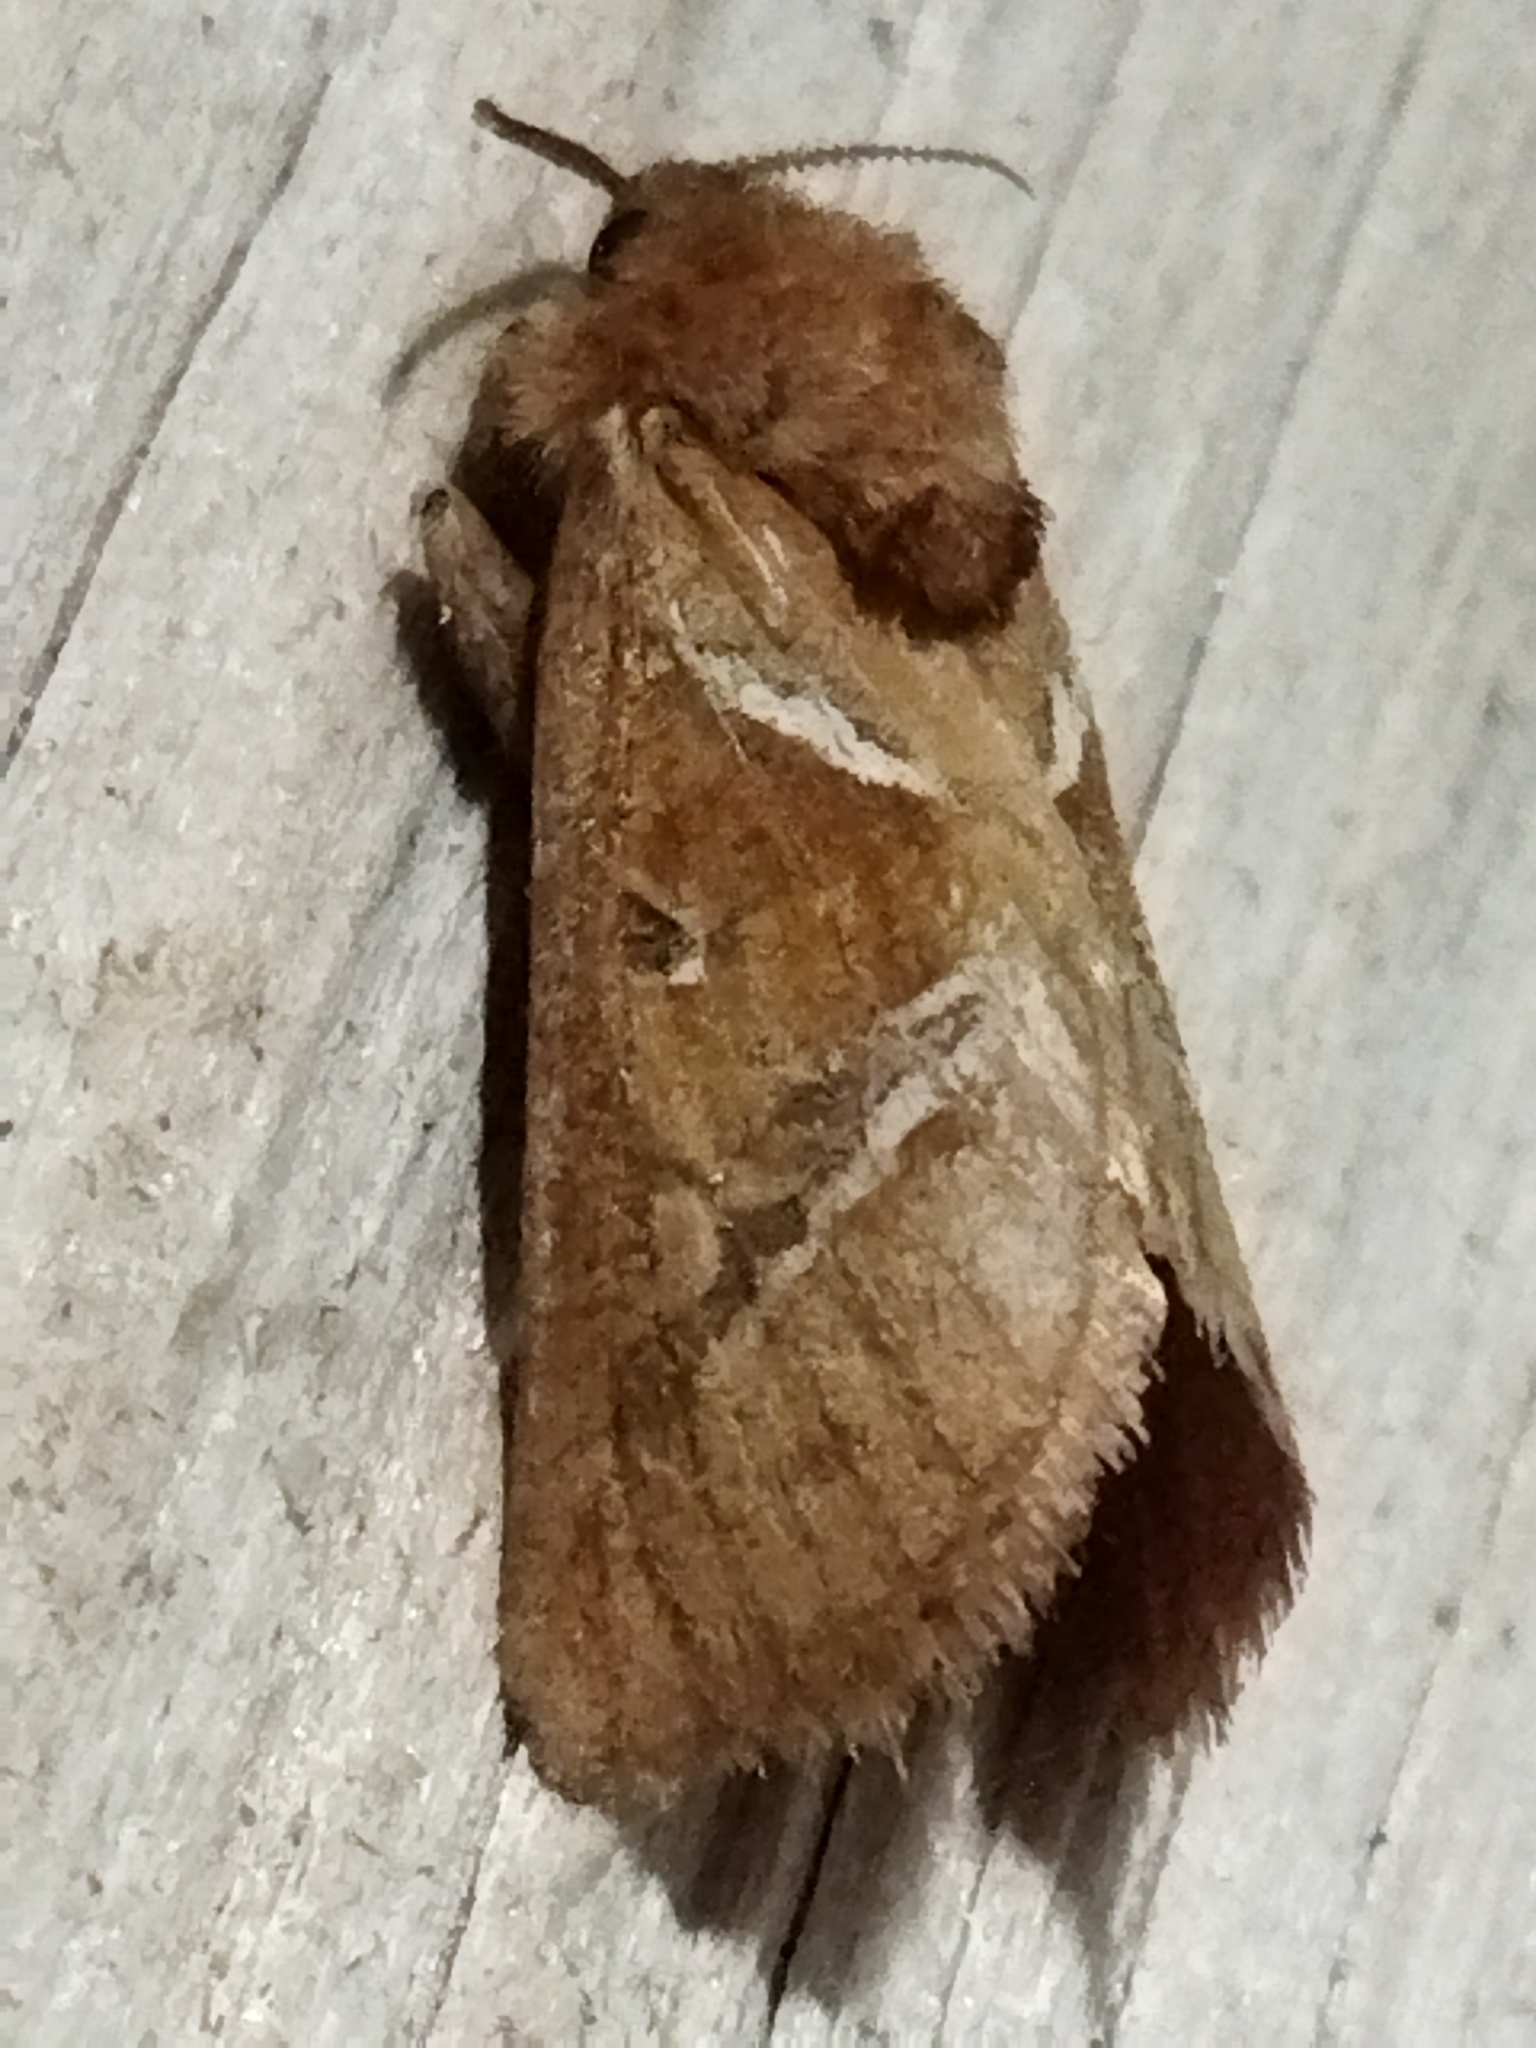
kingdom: Animalia
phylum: Arthropoda
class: Insecta
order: Lepidoptera
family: Hepialidae
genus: Triodia
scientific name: Triodia sylvina
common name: Orange swift
